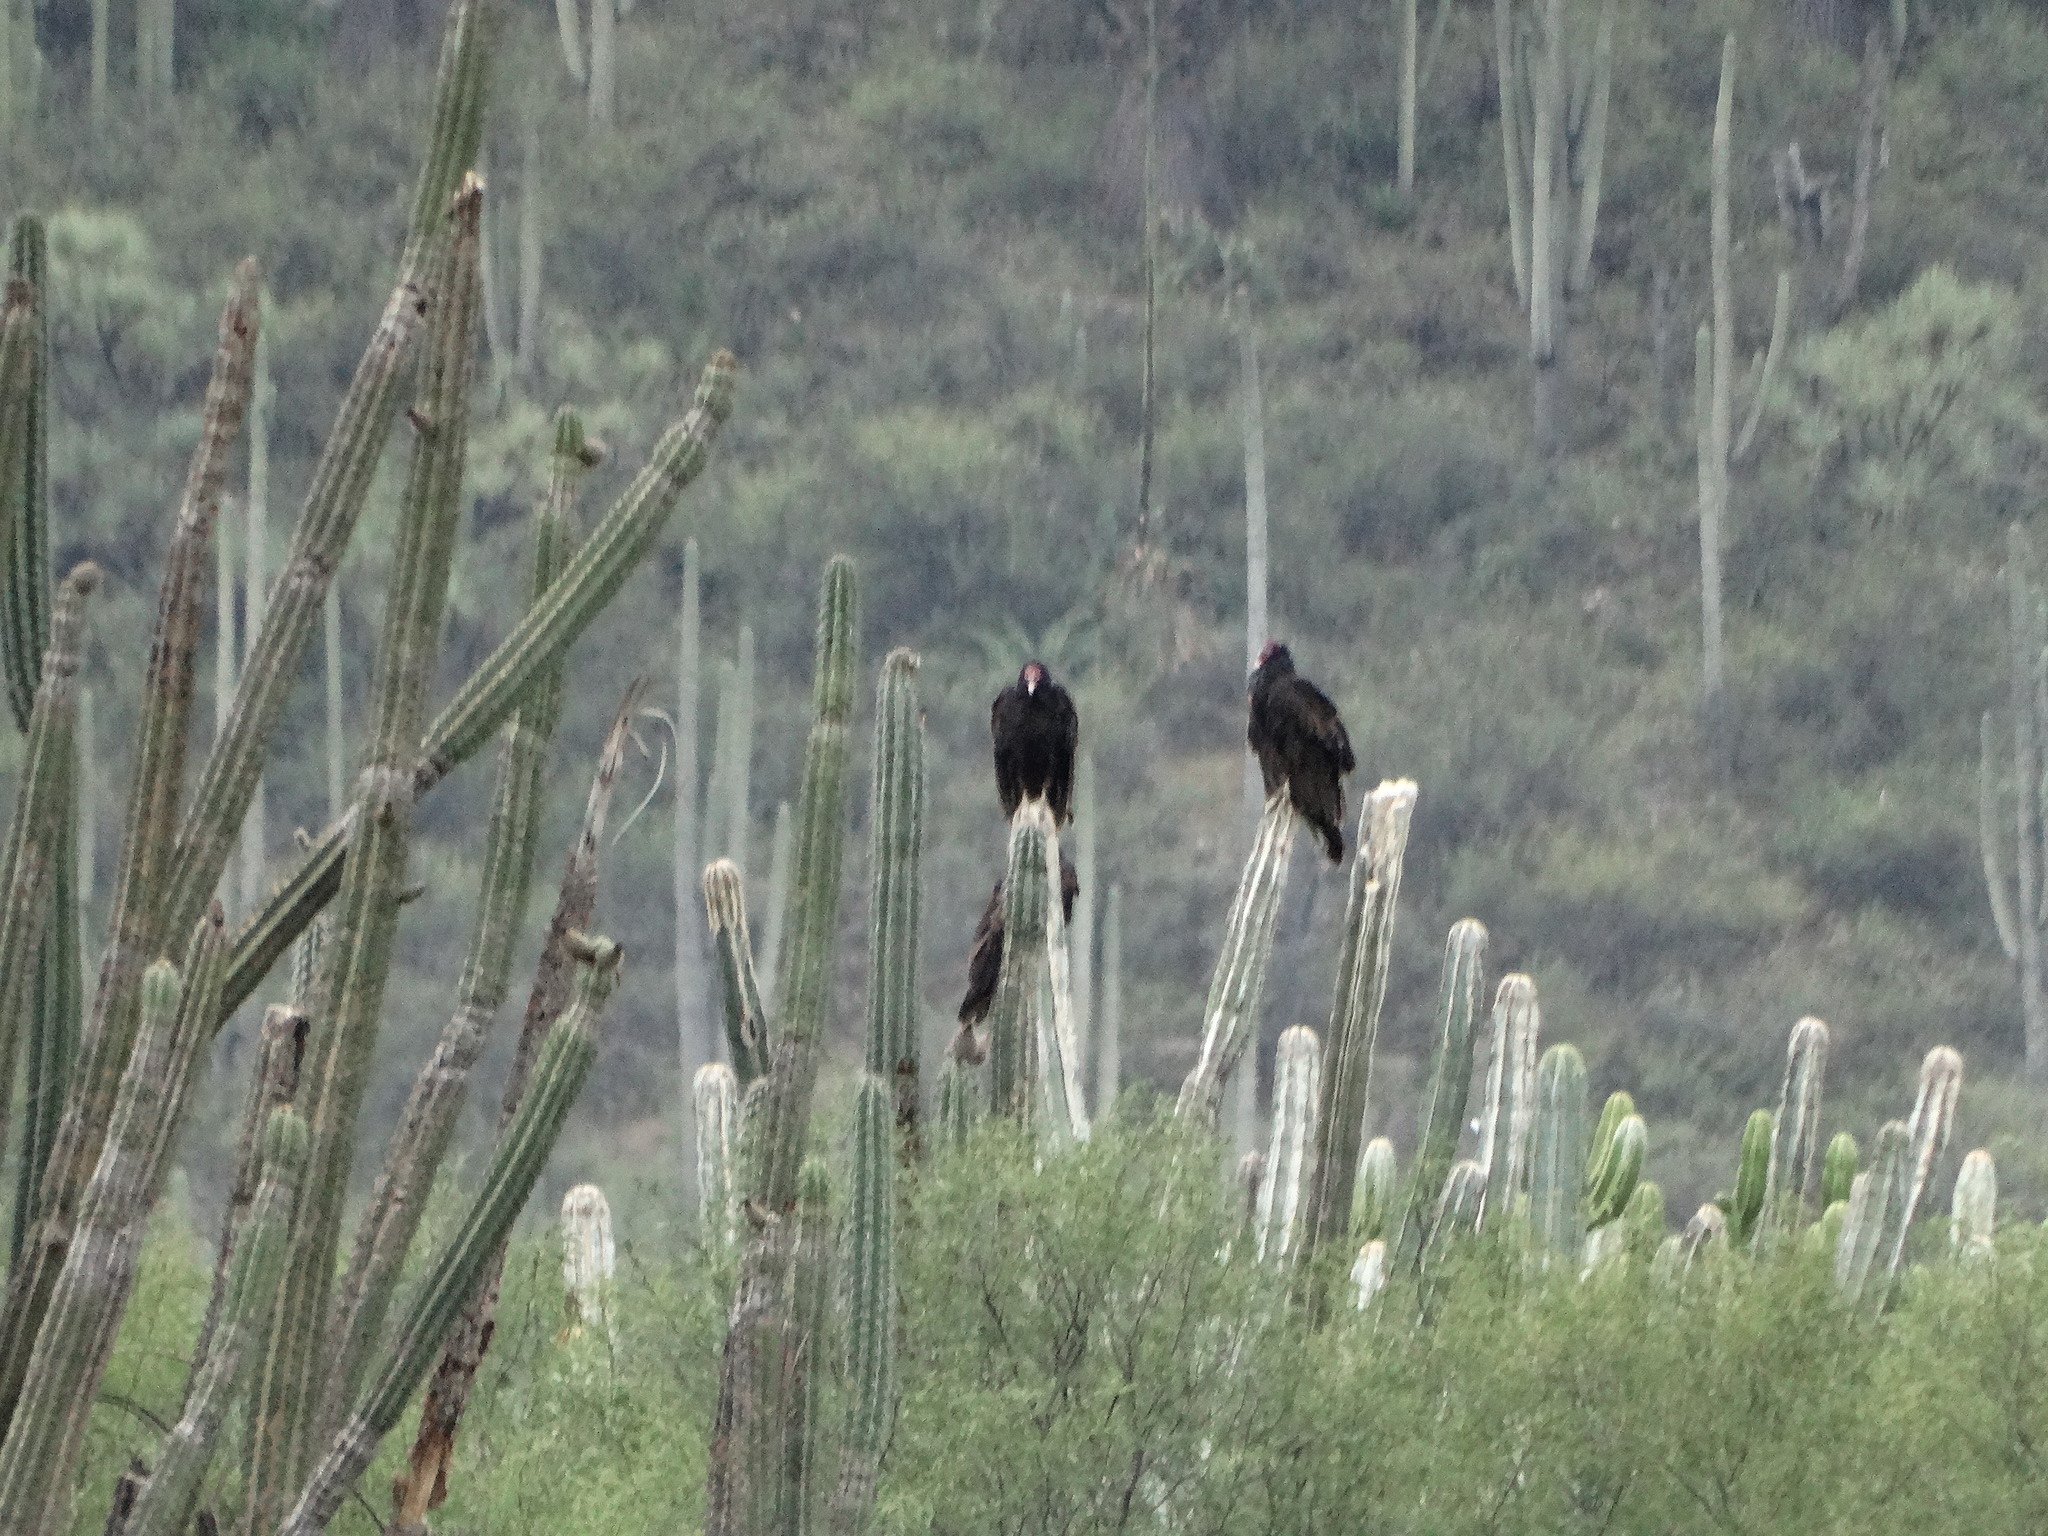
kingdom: Animalia
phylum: Chordata
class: Aves
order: Accipitriformes
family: Cathartidae
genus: Cathartes
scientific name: Cathartes aura
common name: Turkey vulture
